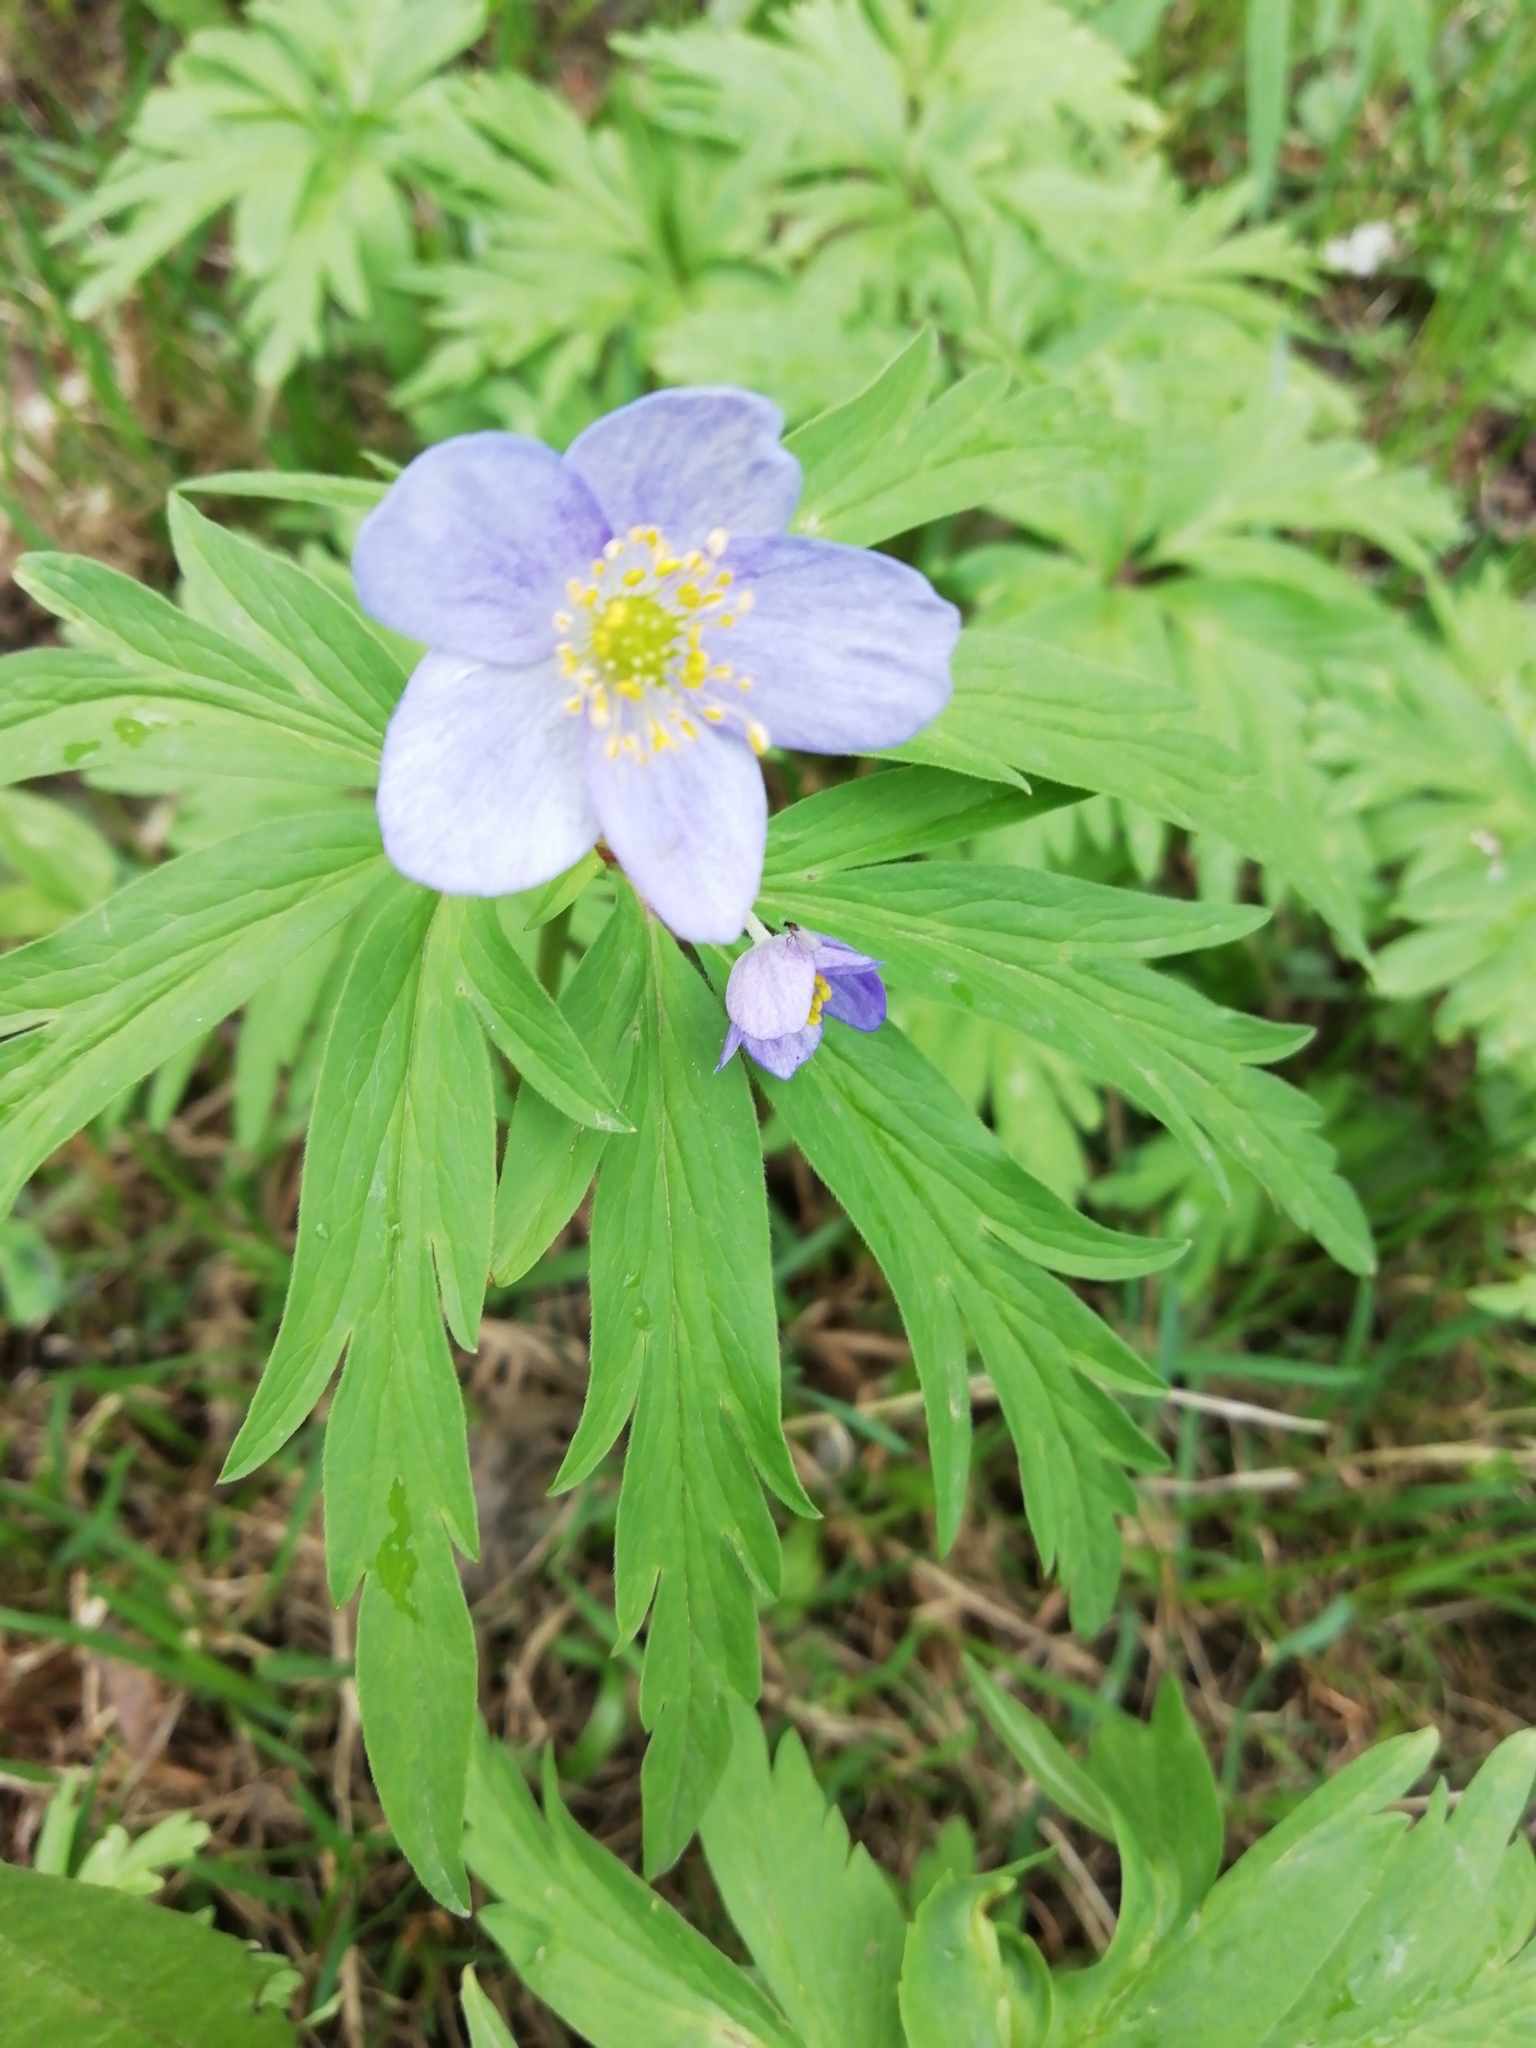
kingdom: Plantae
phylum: Tracheophyta
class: Magnoliopsida
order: Ranunculales
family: Ranunculaceae
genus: Anemone
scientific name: Anemone caerulea
